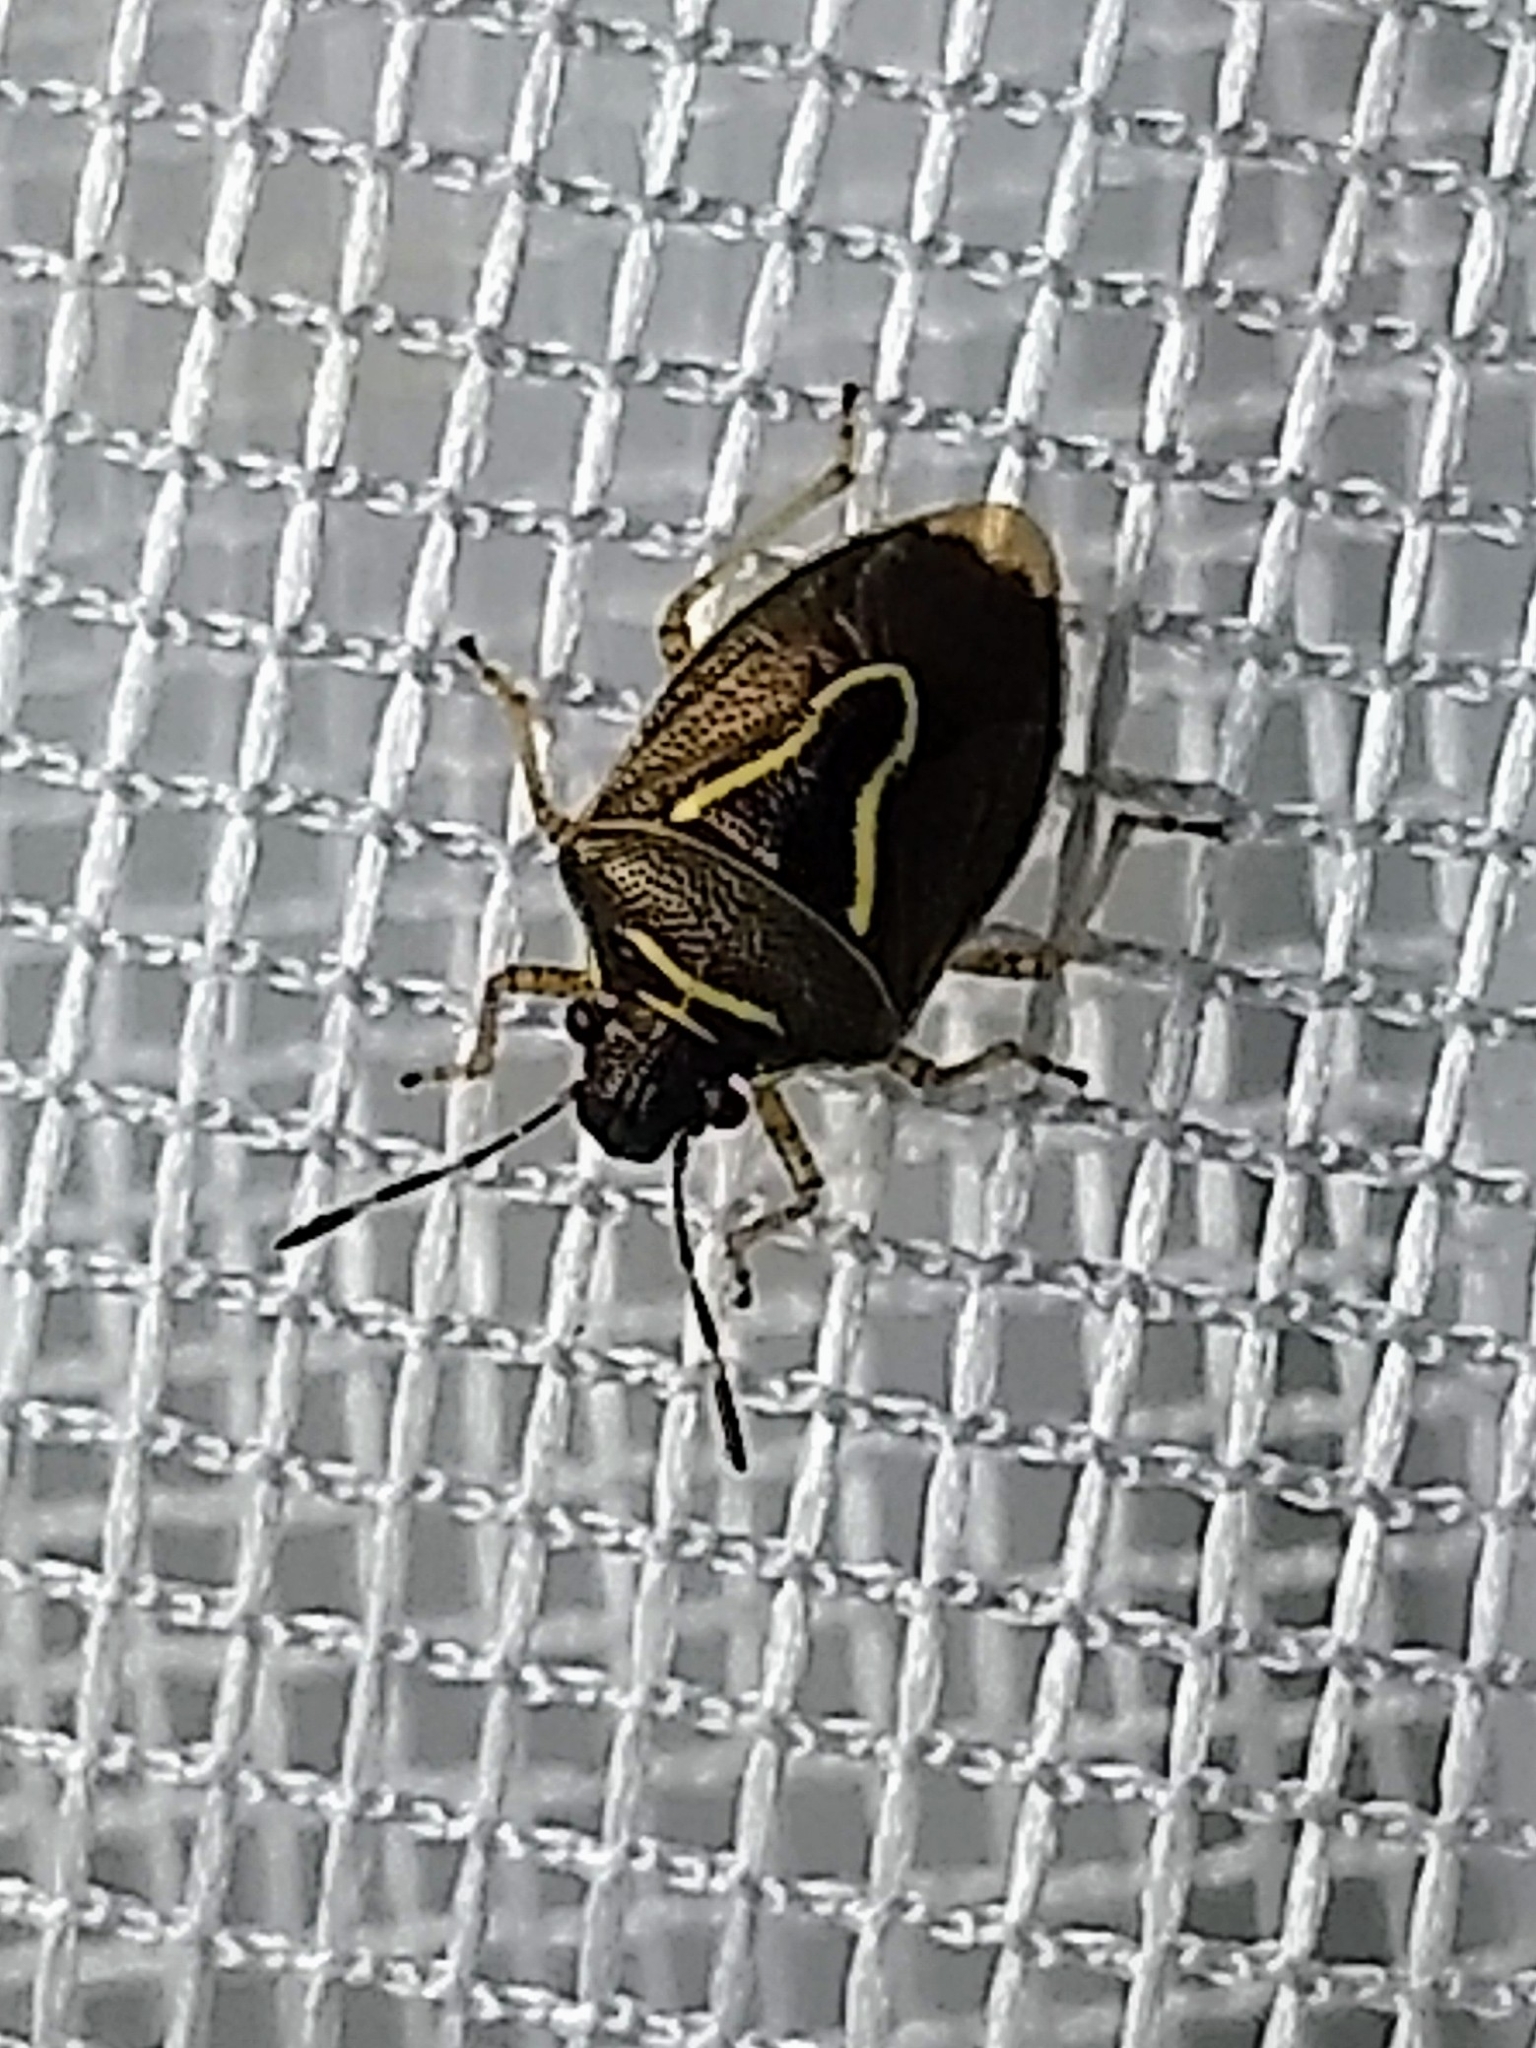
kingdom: Animalia
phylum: Arthropoda
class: Insecta
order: Hemiptera
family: Pentatomidae
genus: Mormidea
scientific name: Mormidea lugens
